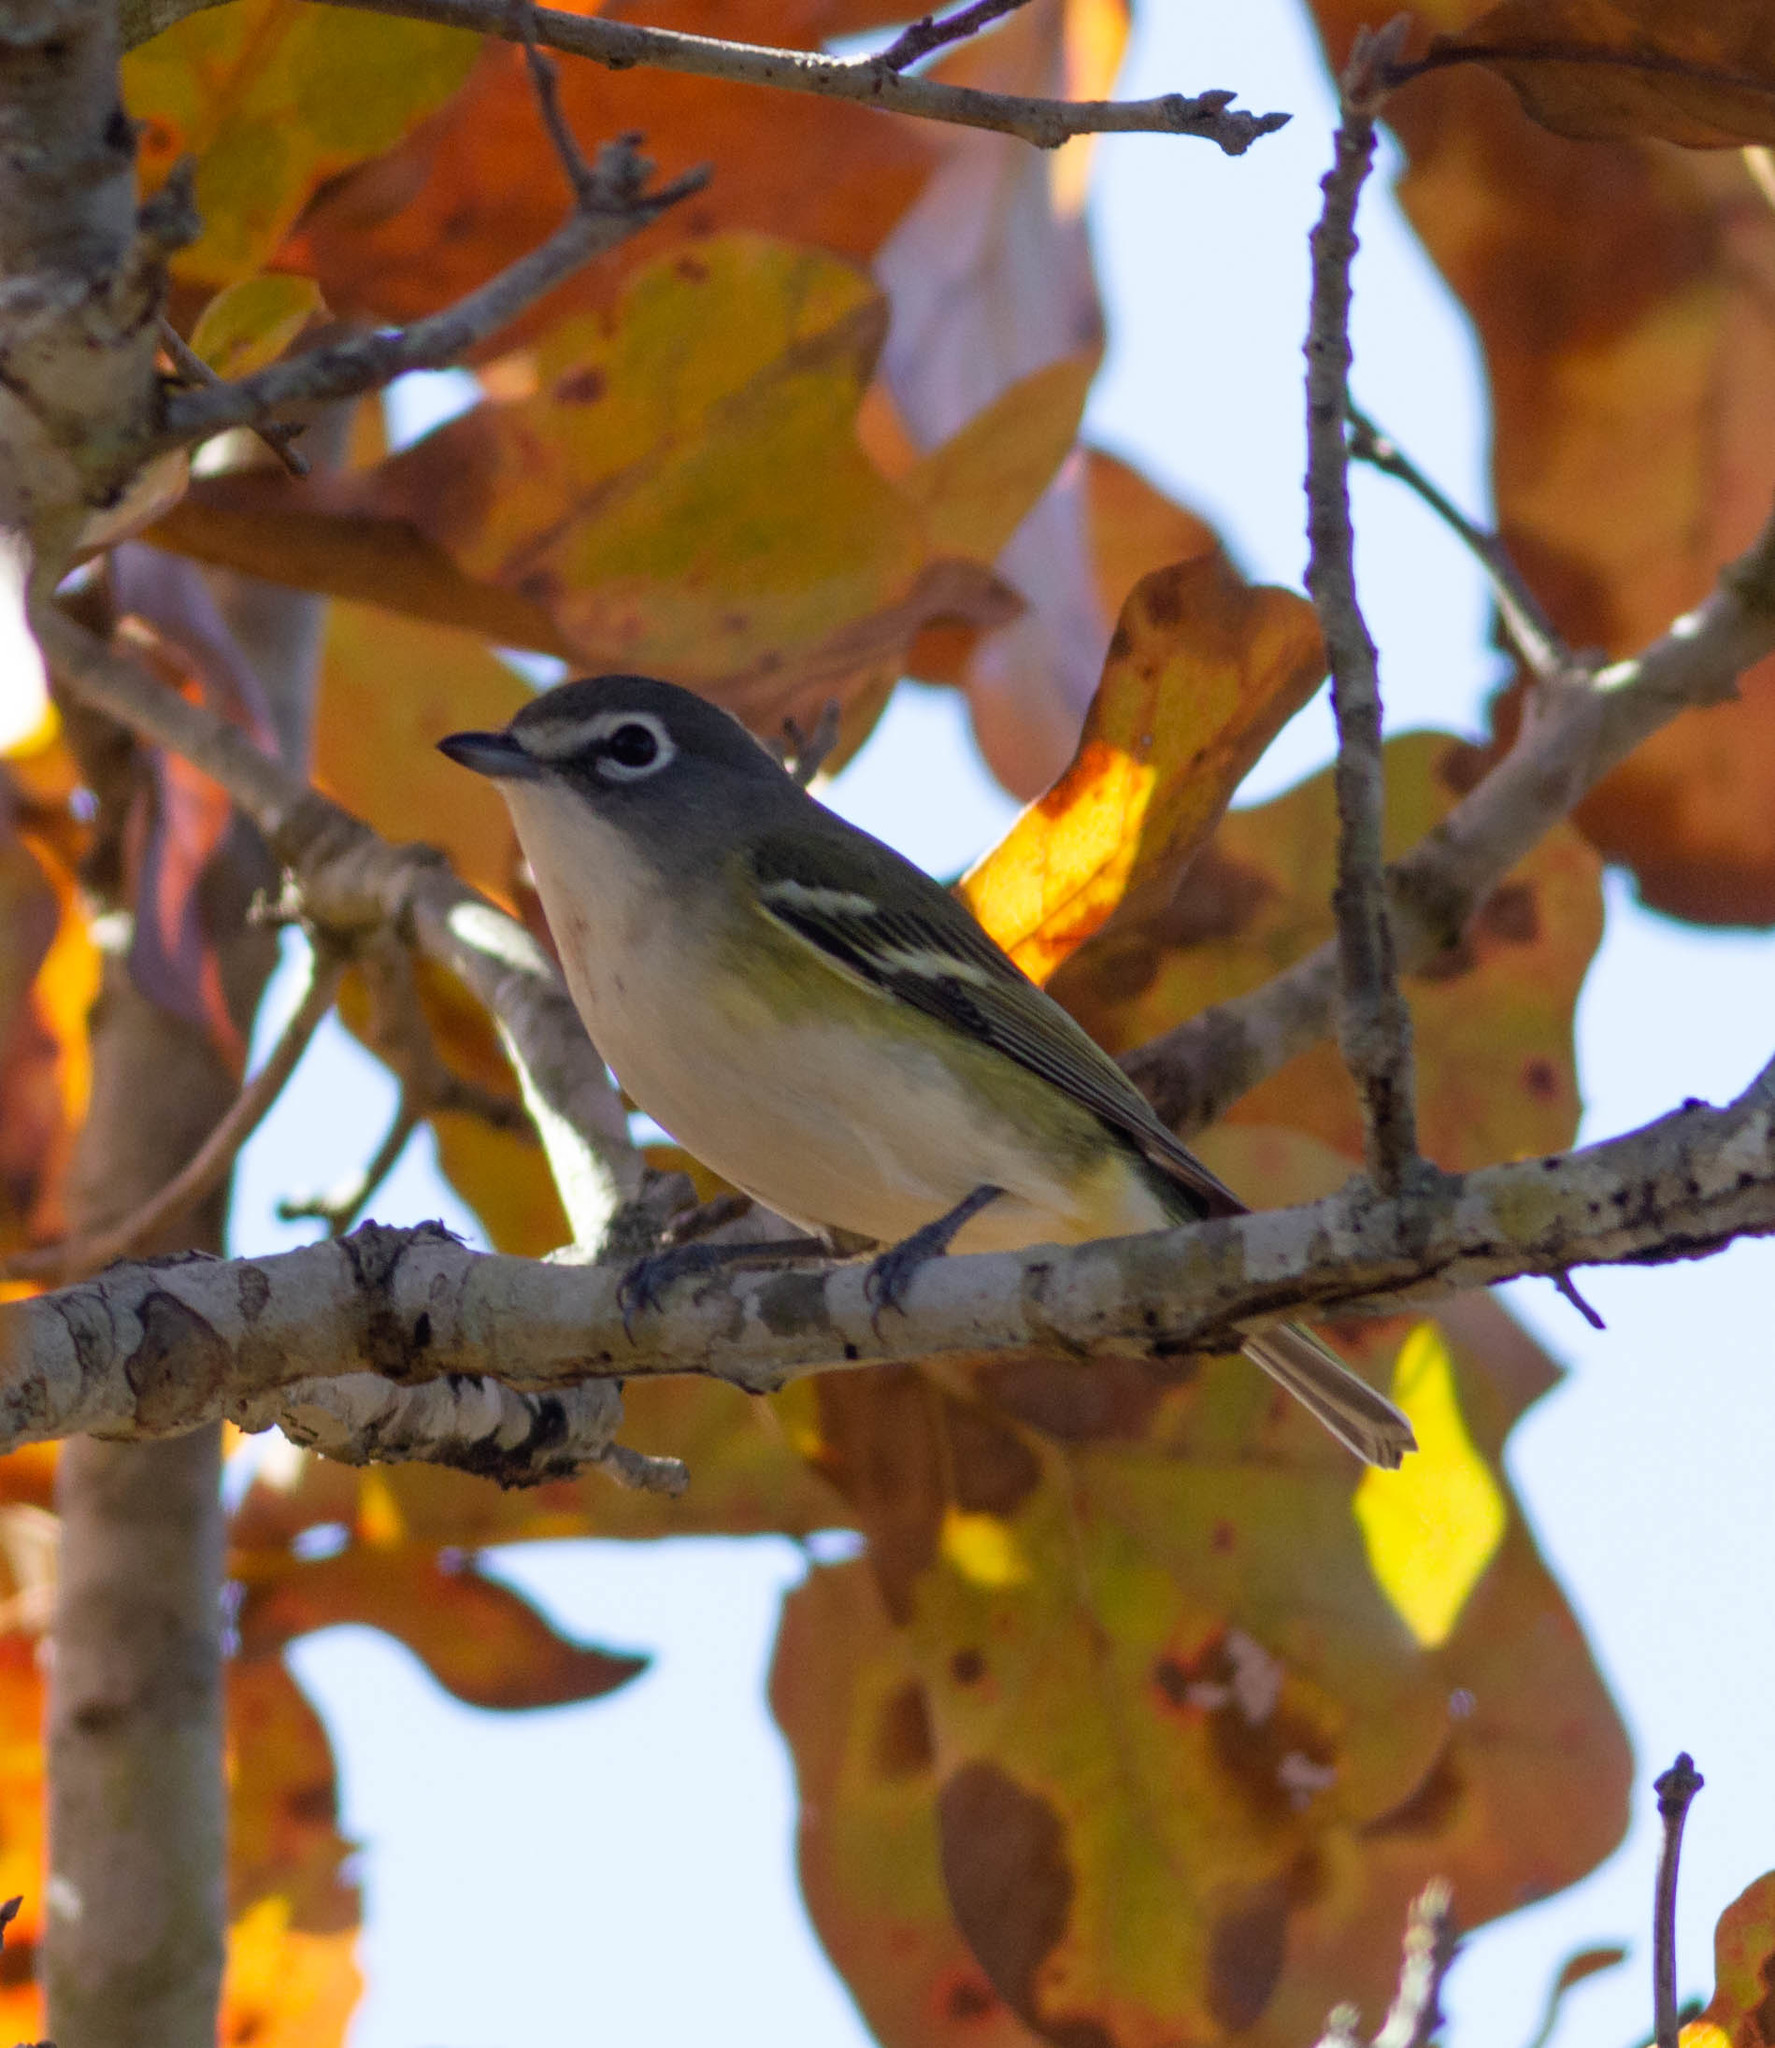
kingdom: Animalia
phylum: Chordata
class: Aves
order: Passeriformes
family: Vireonidae
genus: Vireo
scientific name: Vireo solitarius
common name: Blue-headed vireo
